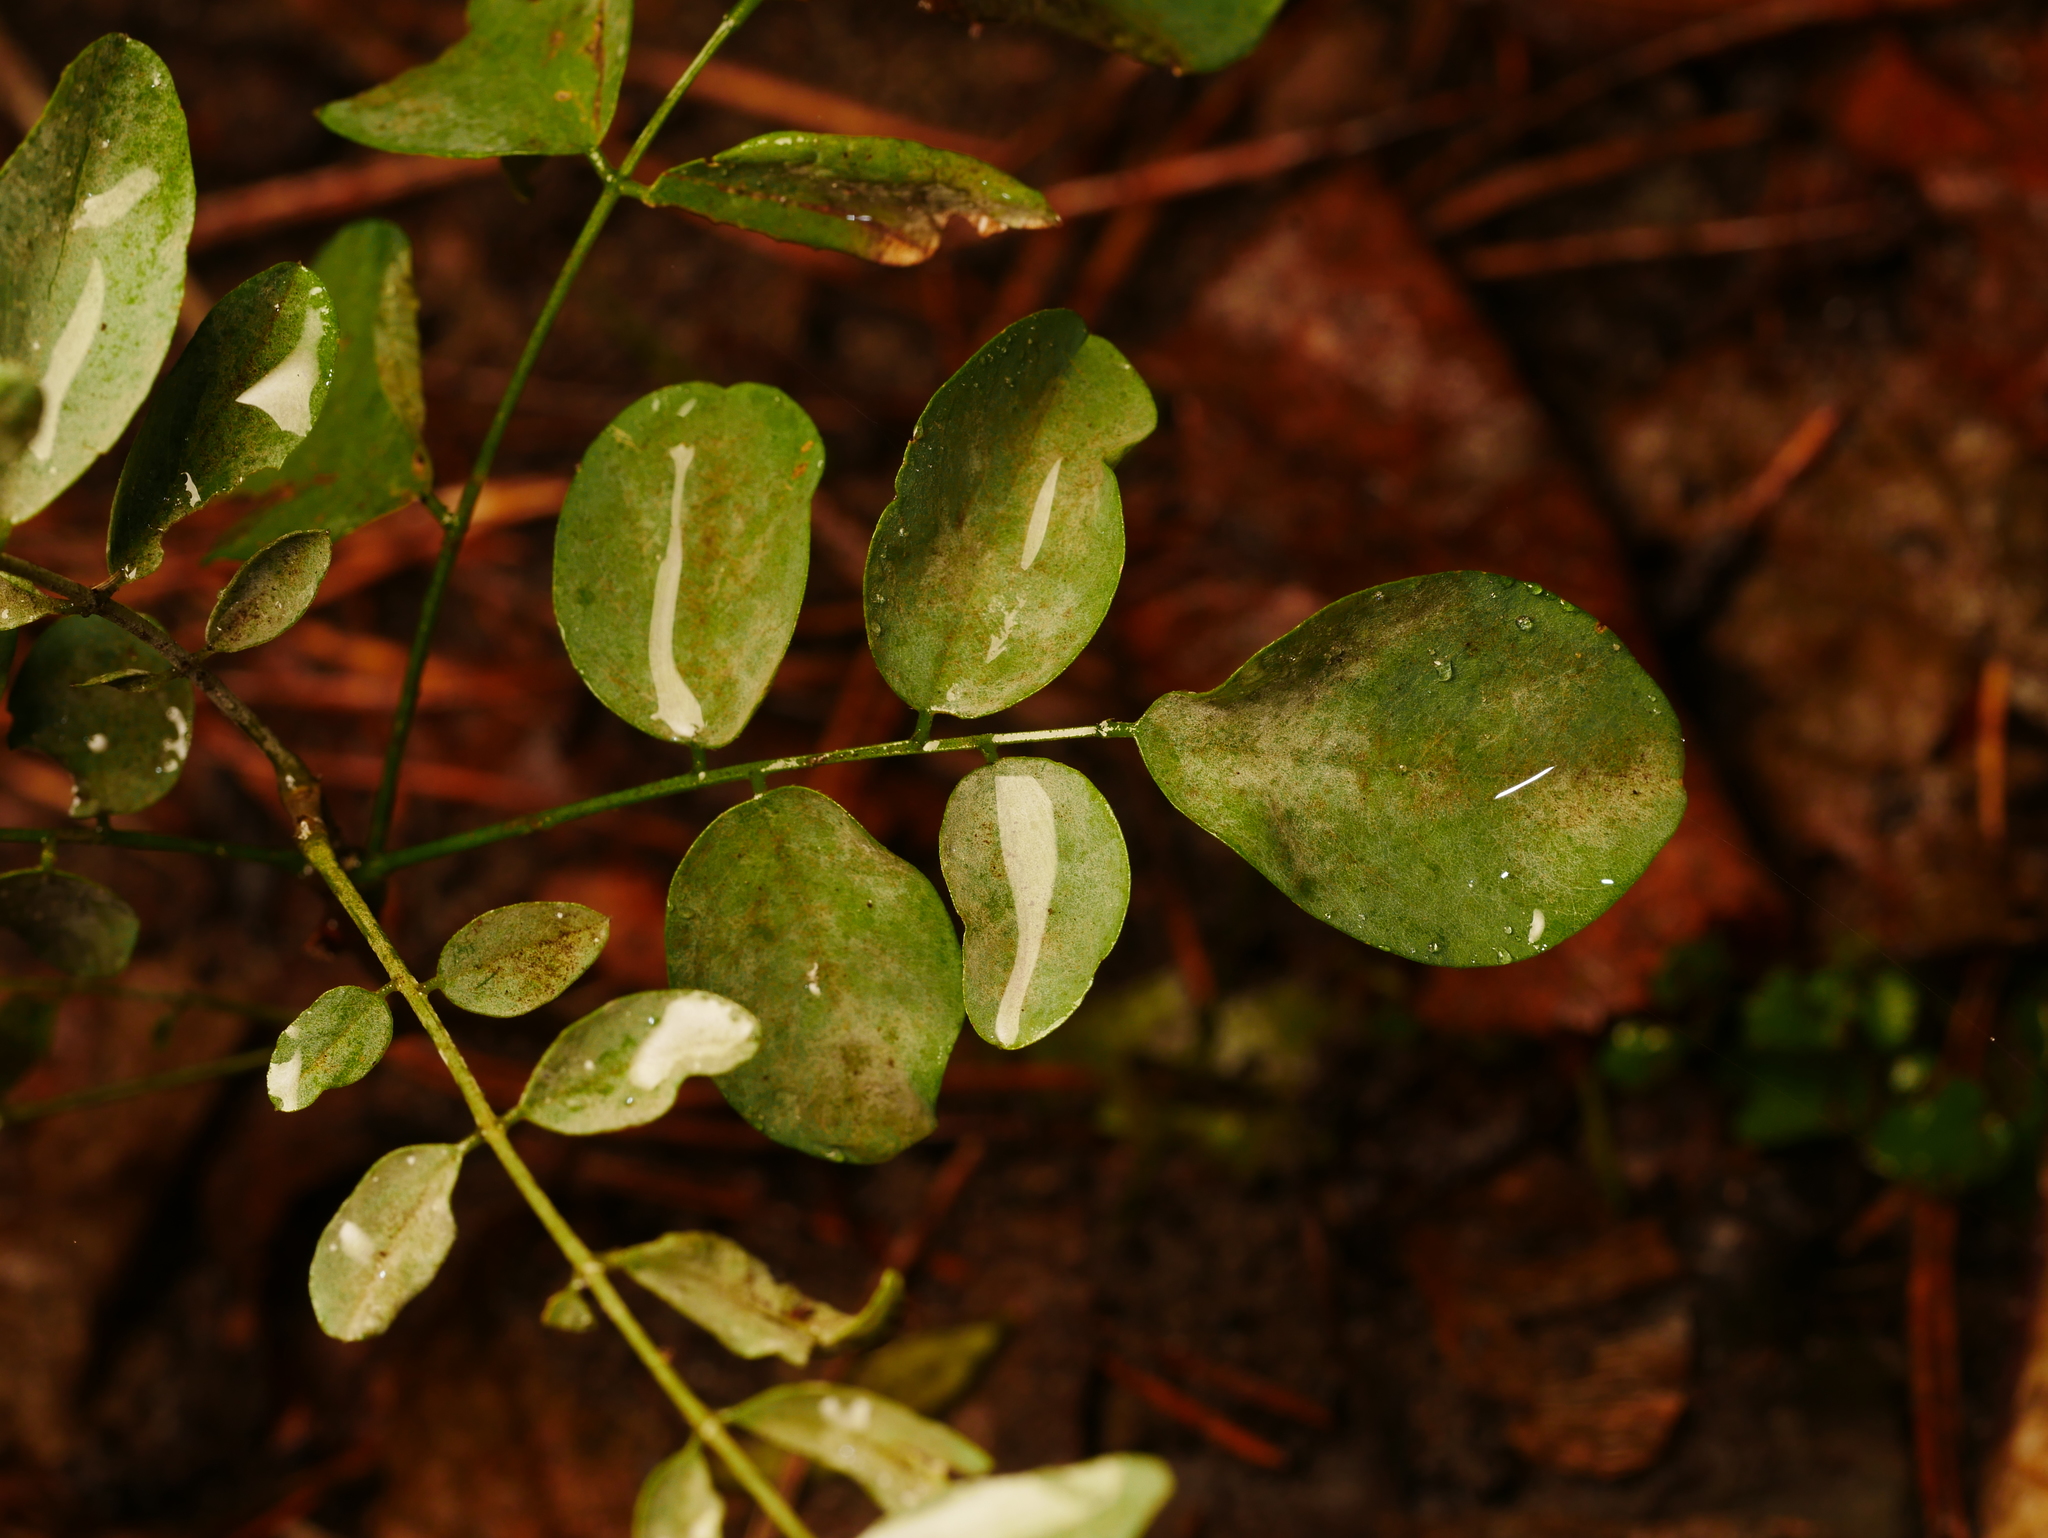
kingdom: Plantae
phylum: Tracheophyta
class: Magnoliopsida
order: Fabales
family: Fabaceae
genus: Robinia
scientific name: Robinia pseudoacacia
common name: Black locust
